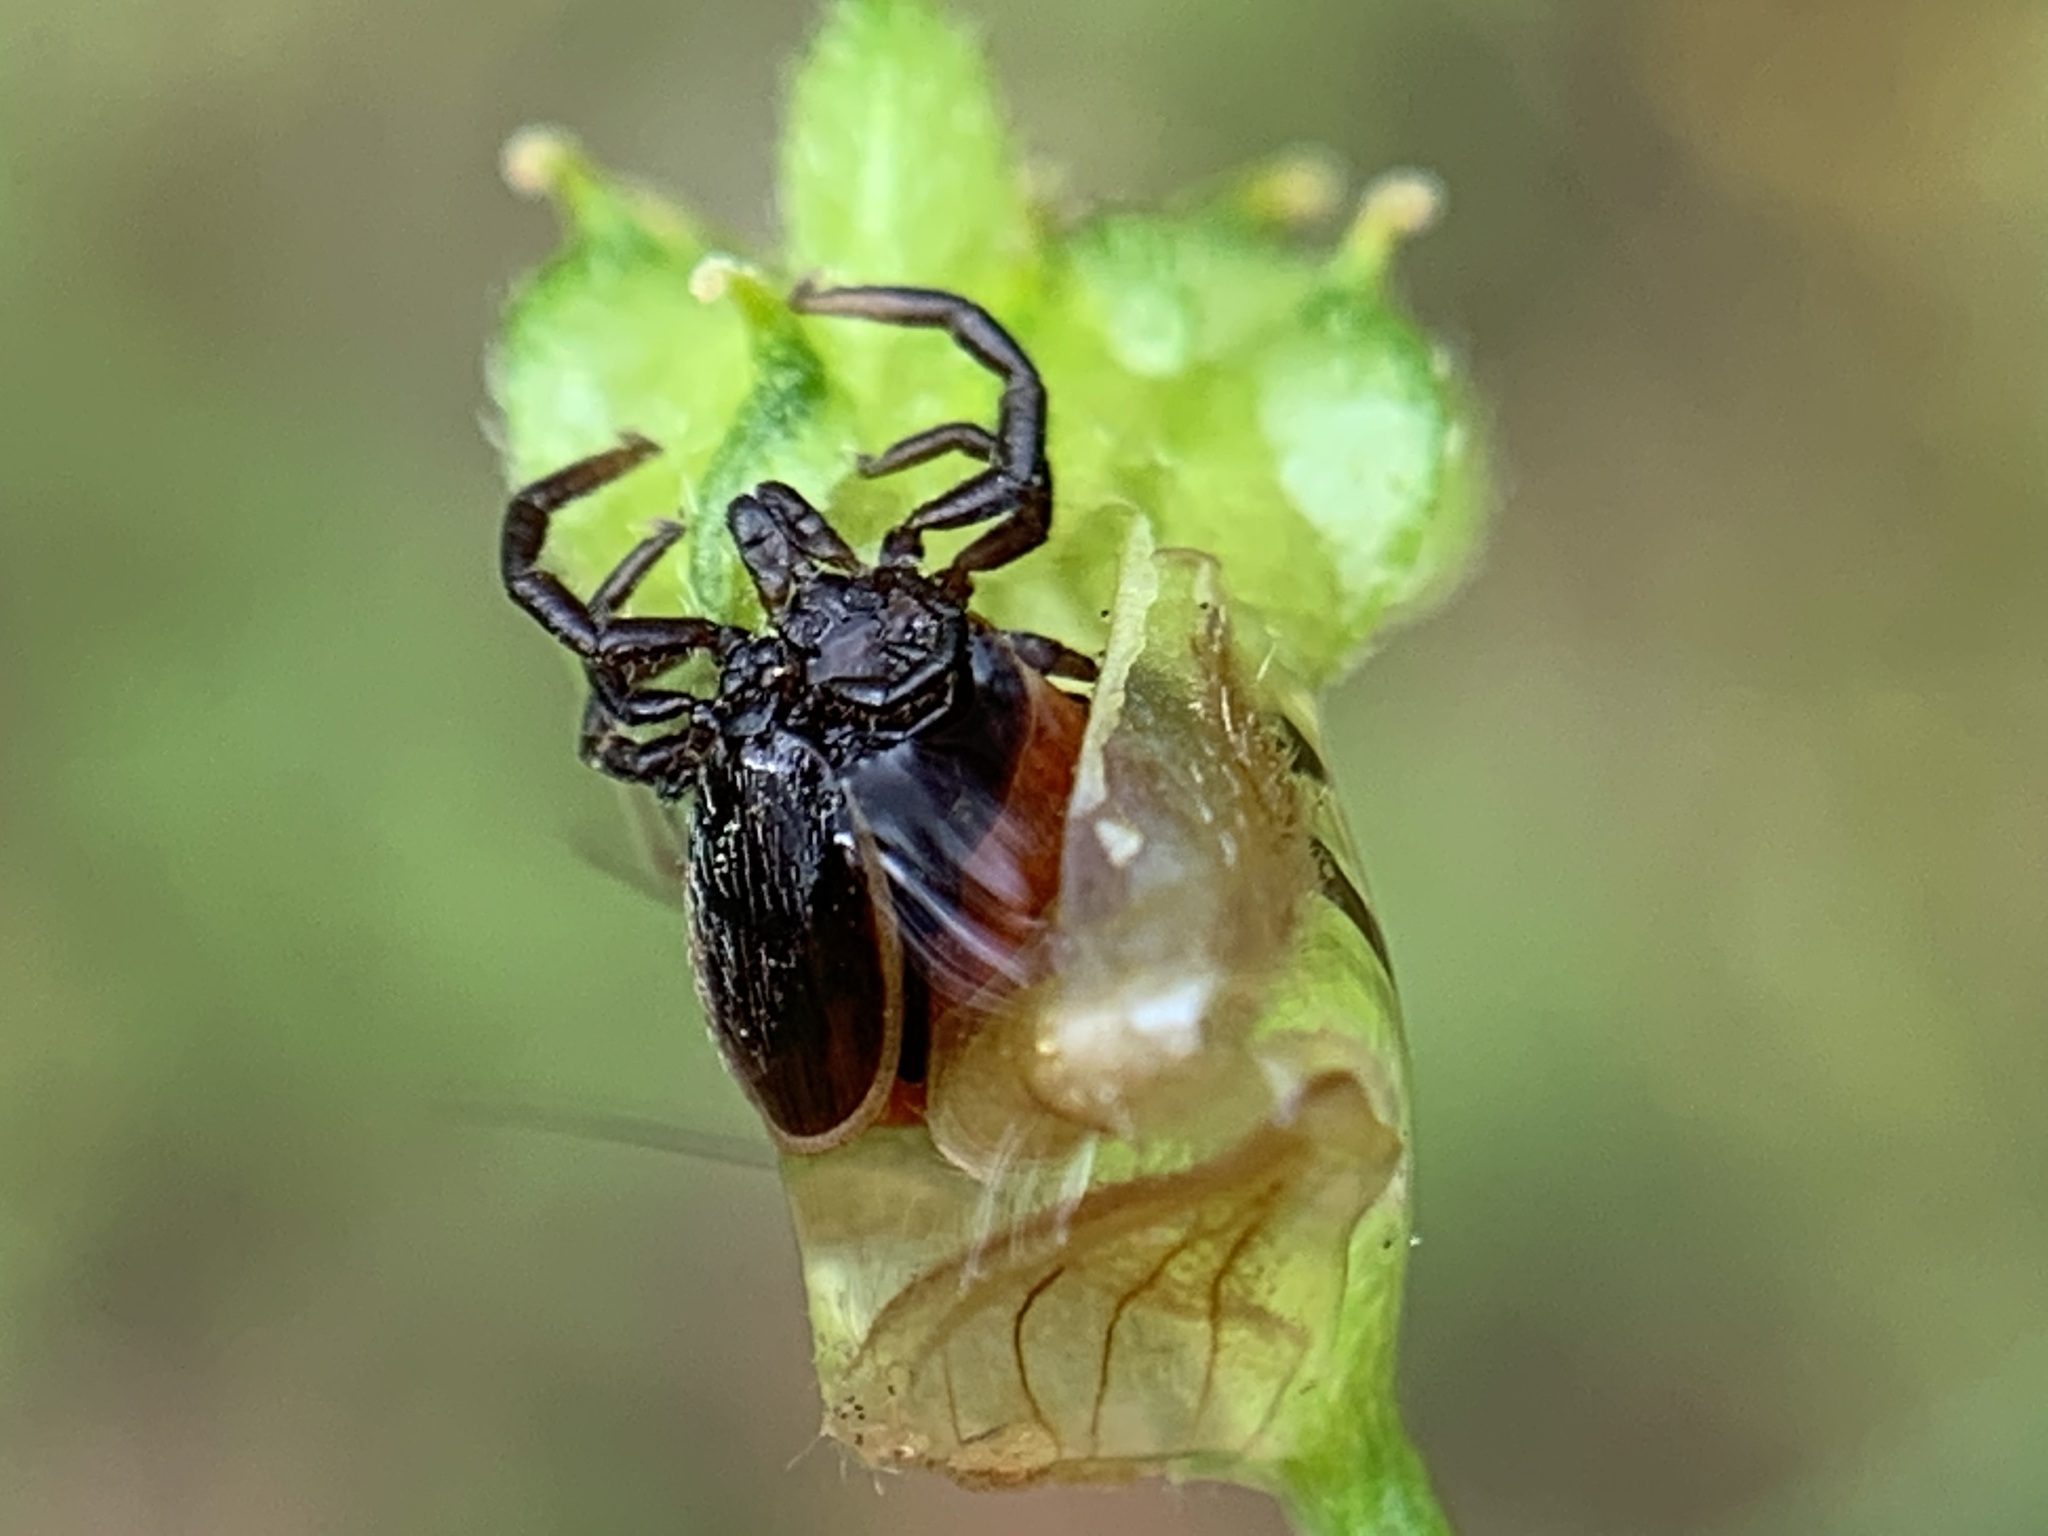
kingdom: Animalia
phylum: Arthropoda
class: Arachnida
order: Ixodida
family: Ixodidae
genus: Ixodes
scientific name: Ixodes pacificus
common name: California black-legged tick
